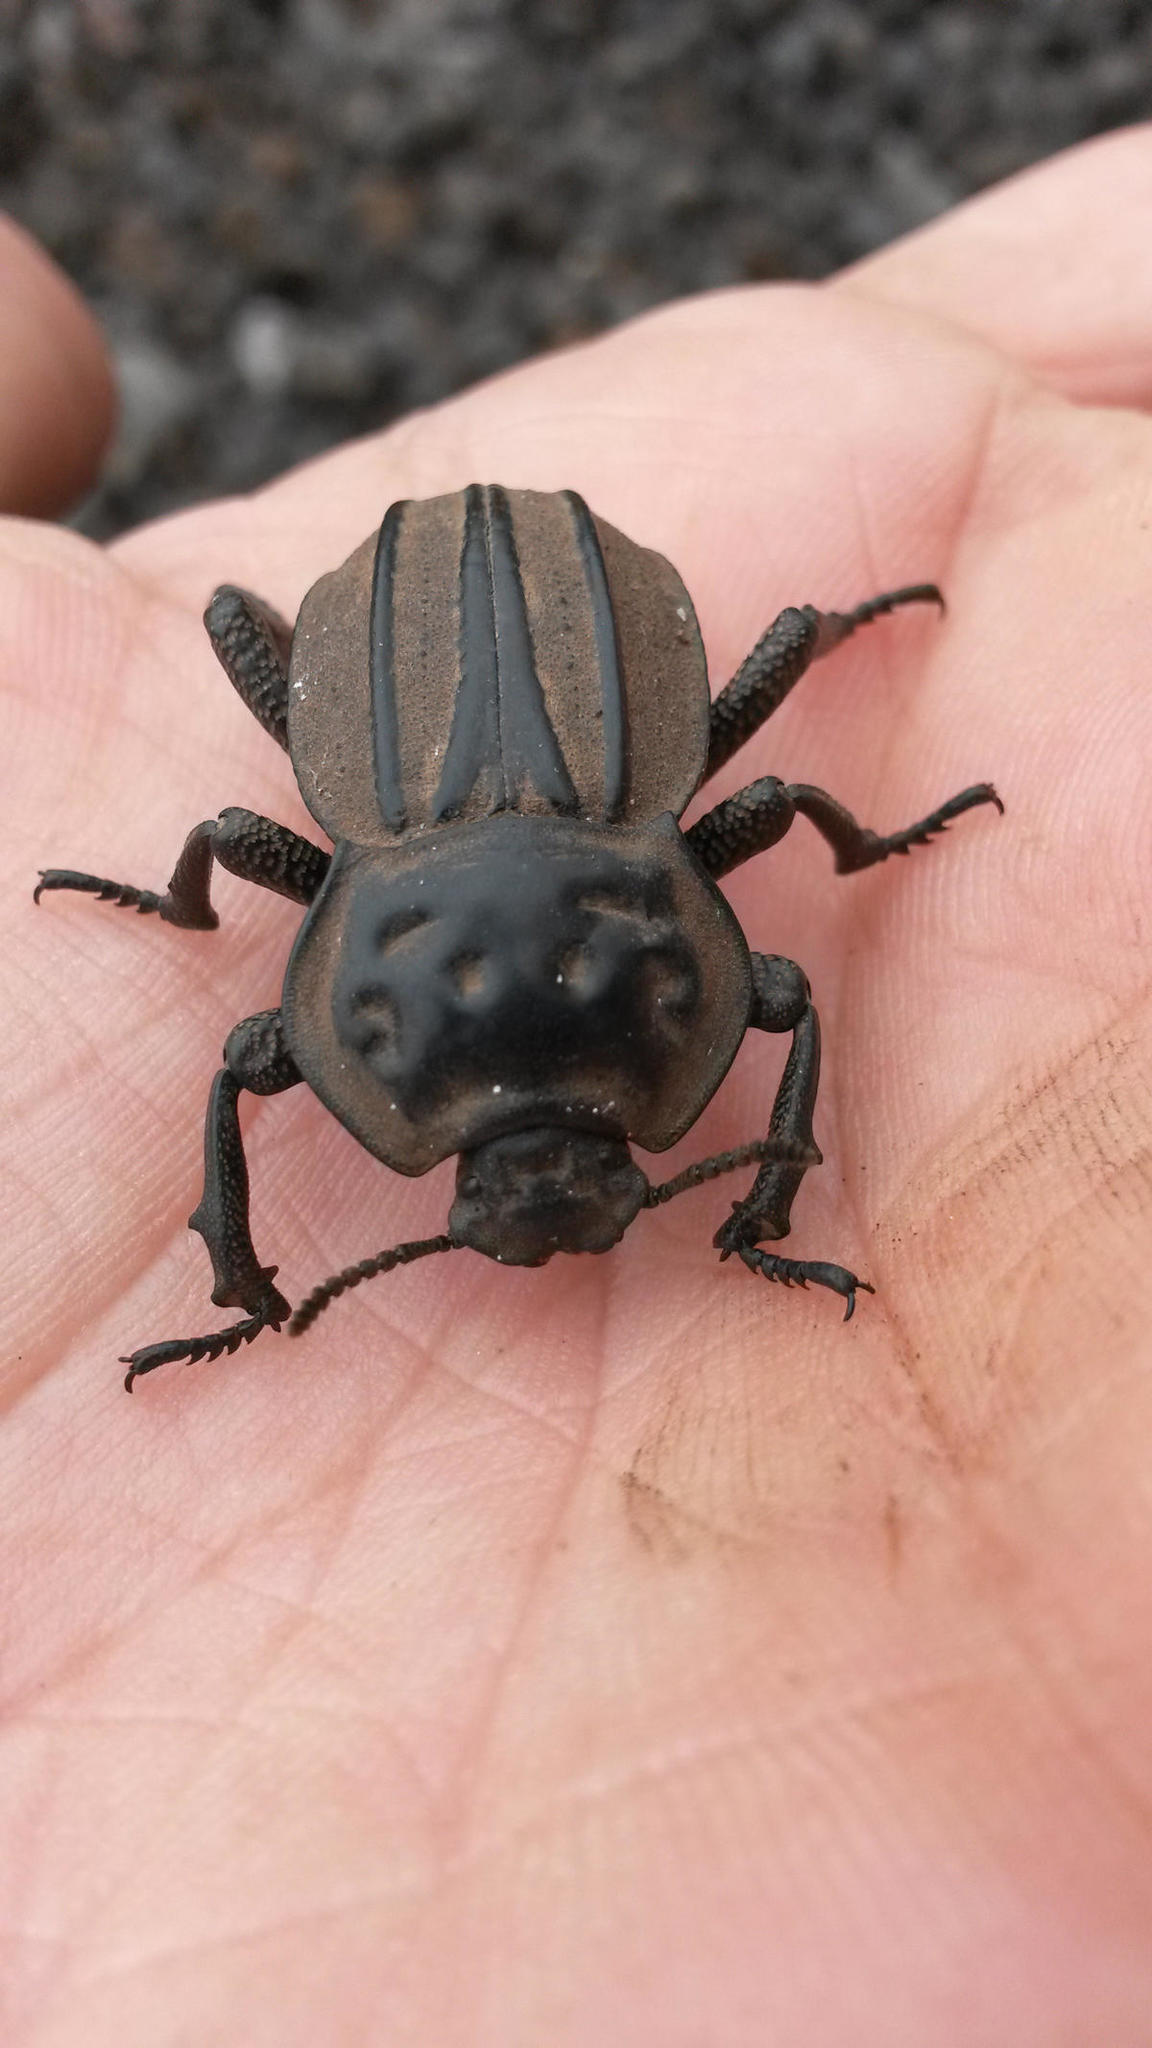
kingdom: Animalia
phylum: Arthropoda
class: Insecta
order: Coleoptera
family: Tenebrionidae
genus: Anomalipus
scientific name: Anomalipus
